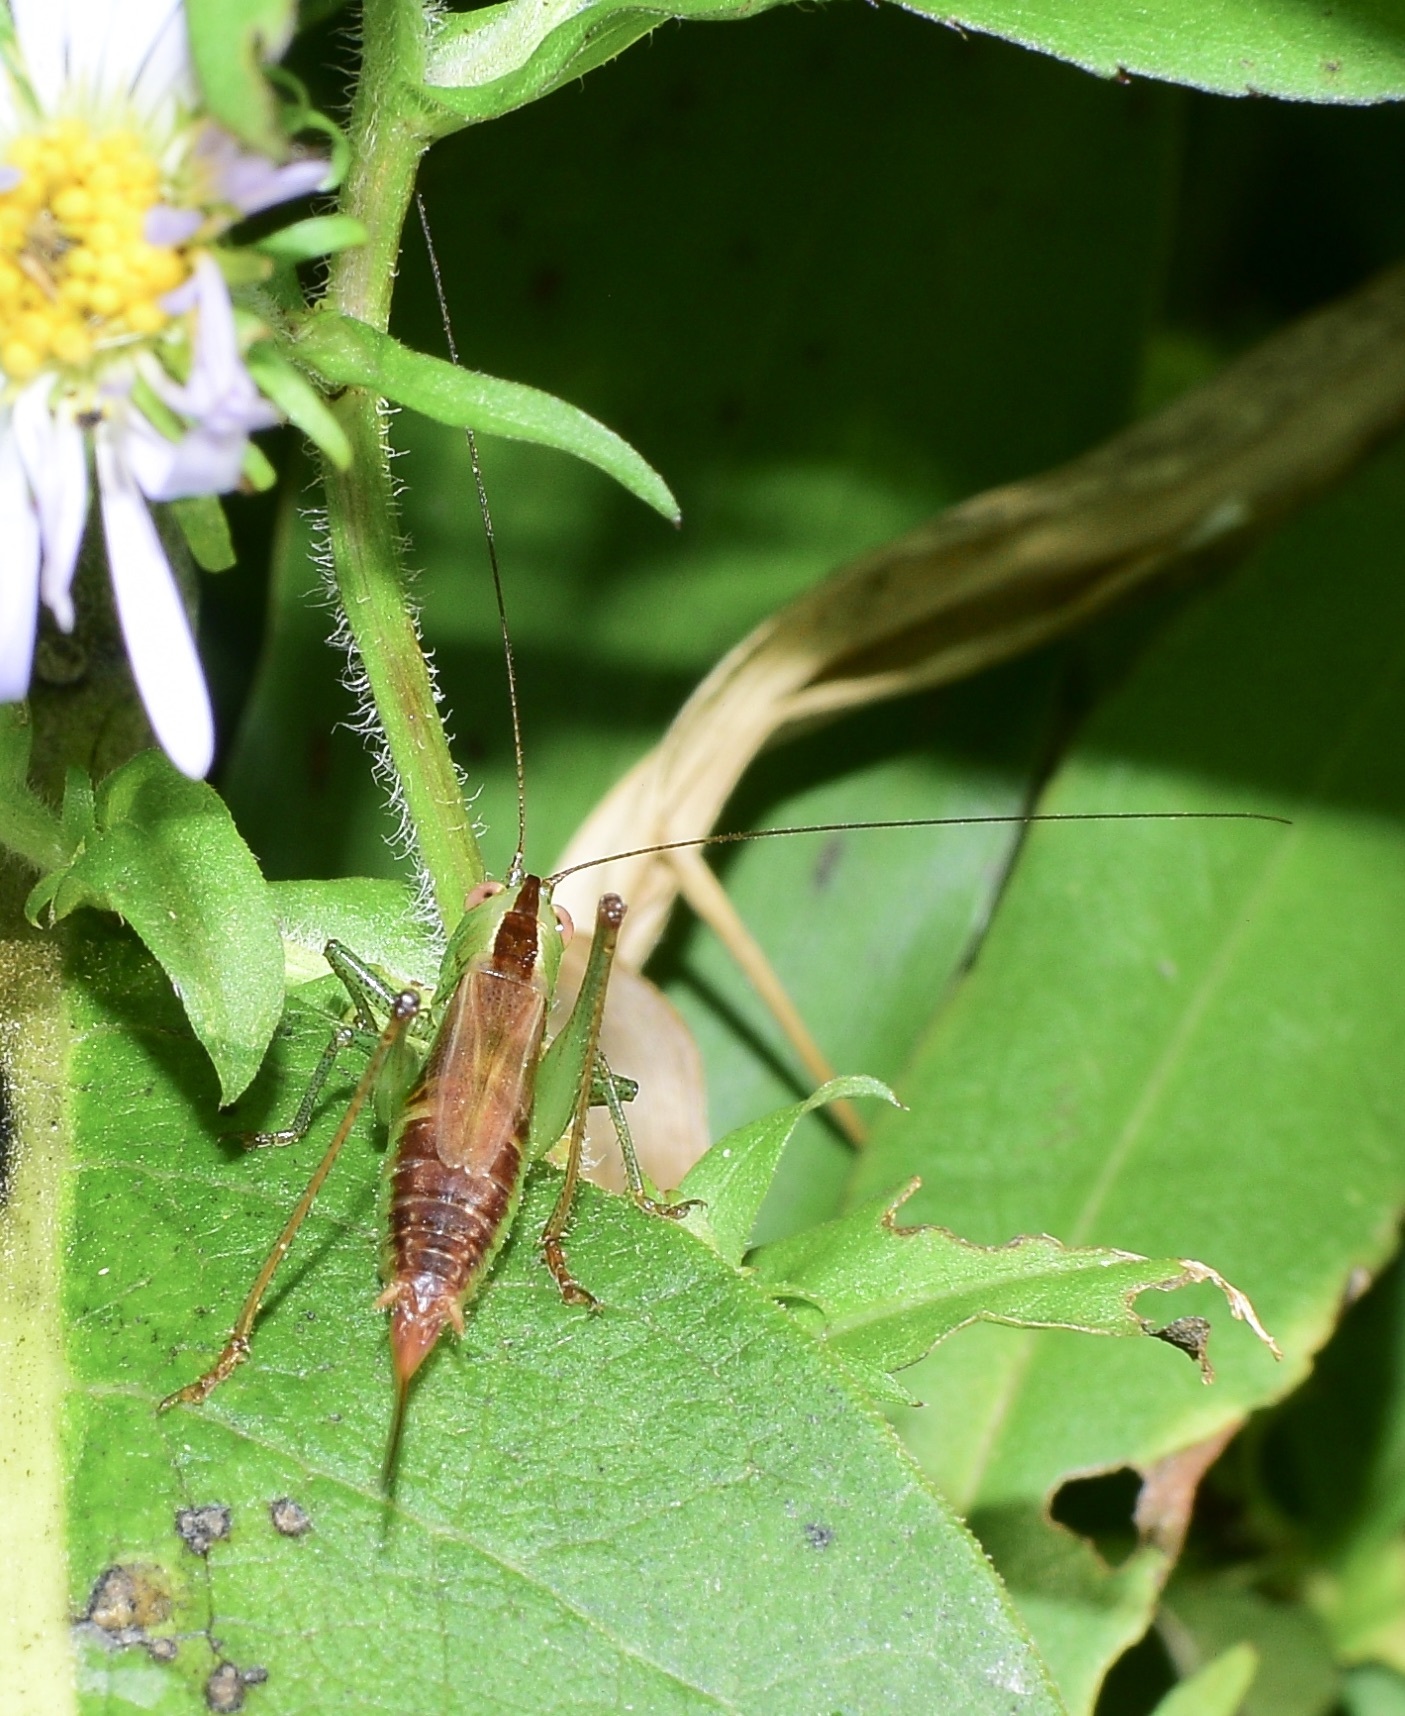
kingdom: Animalia
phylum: Arthropoda
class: Insecta
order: Orthoptera
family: Tettigoniidae
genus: Conocephalus
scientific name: Conocephalus brevipennis
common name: Short-winged meadow katydid
